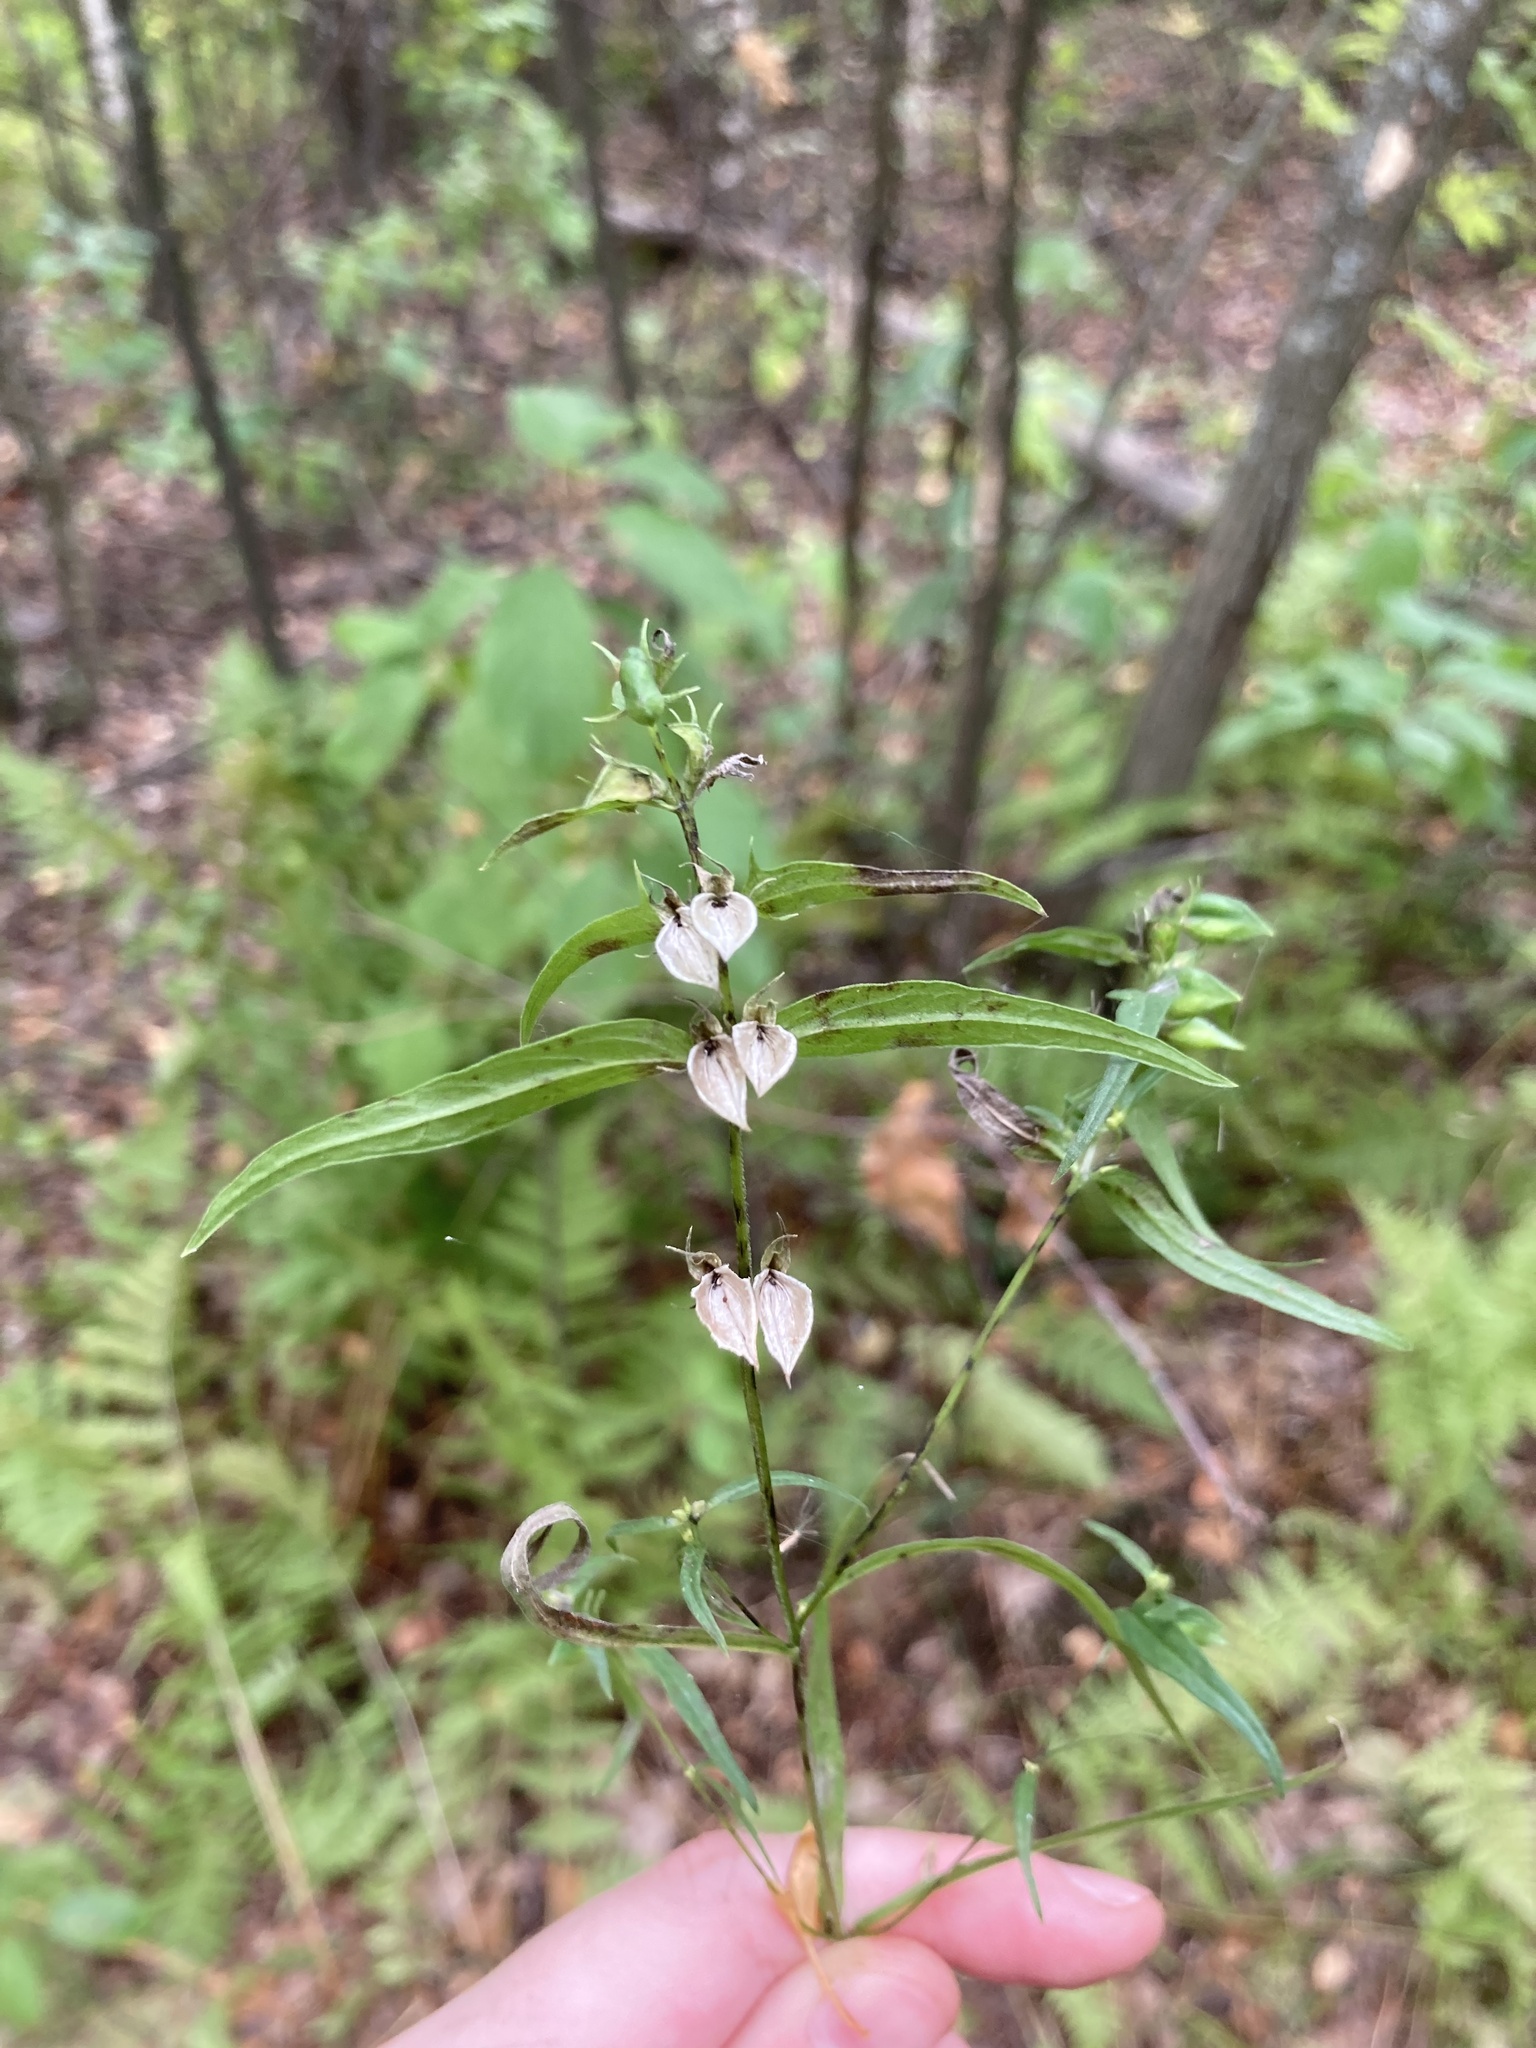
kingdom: Plantae
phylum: Tracheophyta
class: Magnoliopsida
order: Lamiales
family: Orobanchaceae
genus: Melampyrum
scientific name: Melampyrum pratense
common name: Common cow-wheat
